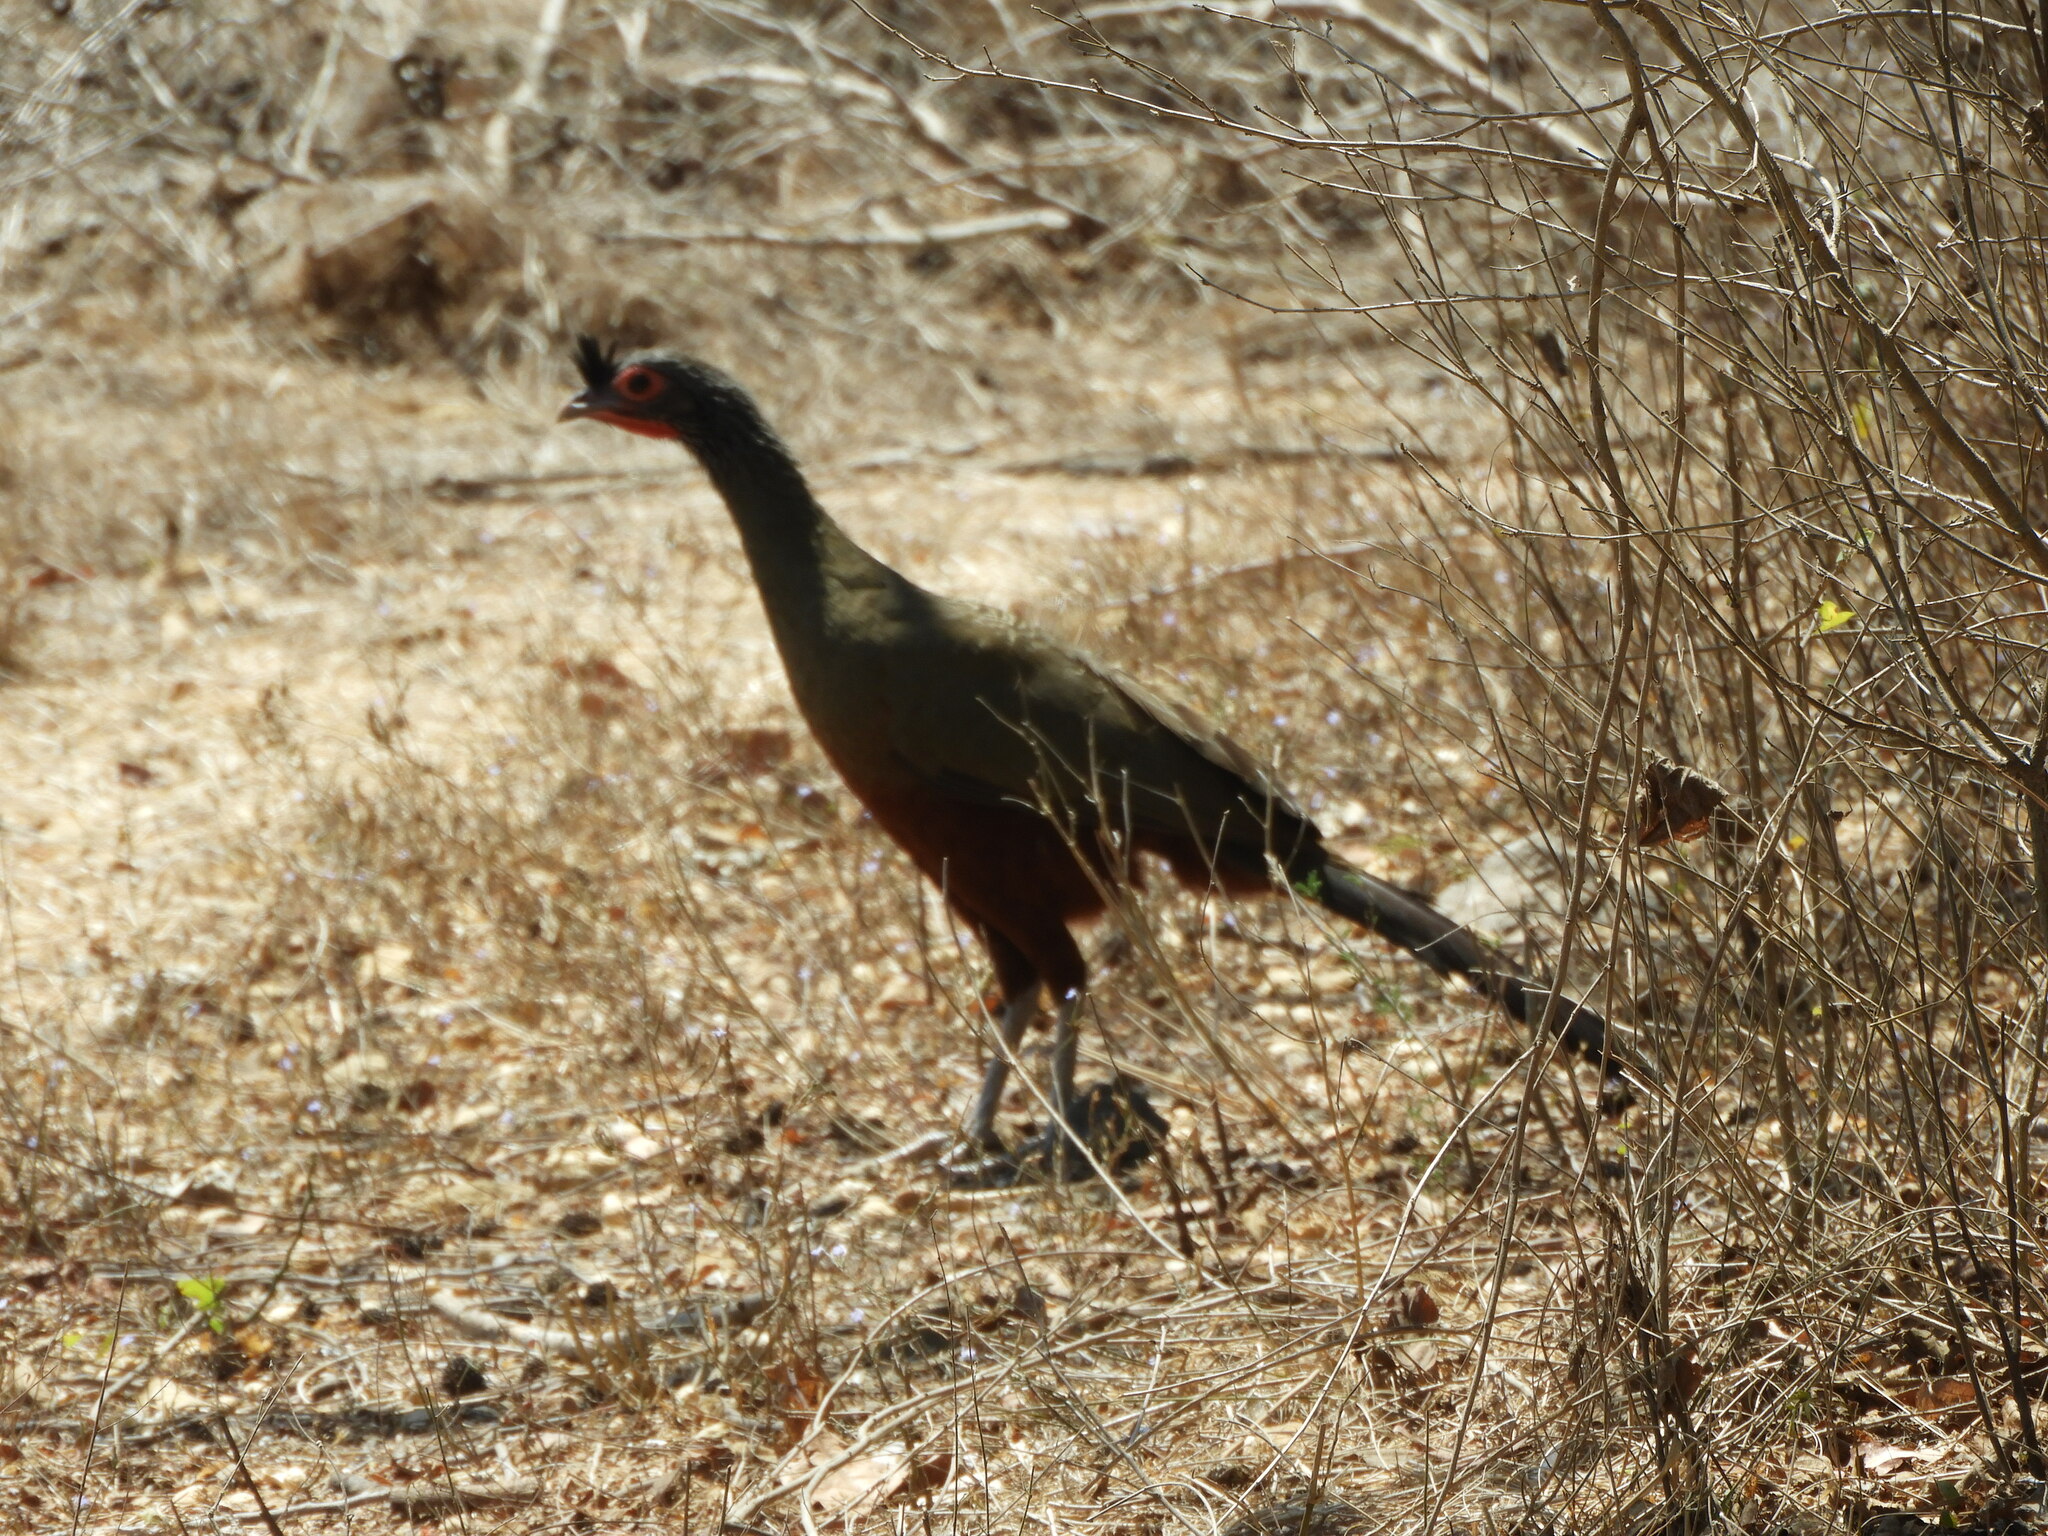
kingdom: Animalia
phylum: Chordata
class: Aves
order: Galliformes
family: Cracidae
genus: Ortalis
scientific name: Ortalis wagleri
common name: Rufous-bellied chachalaca
